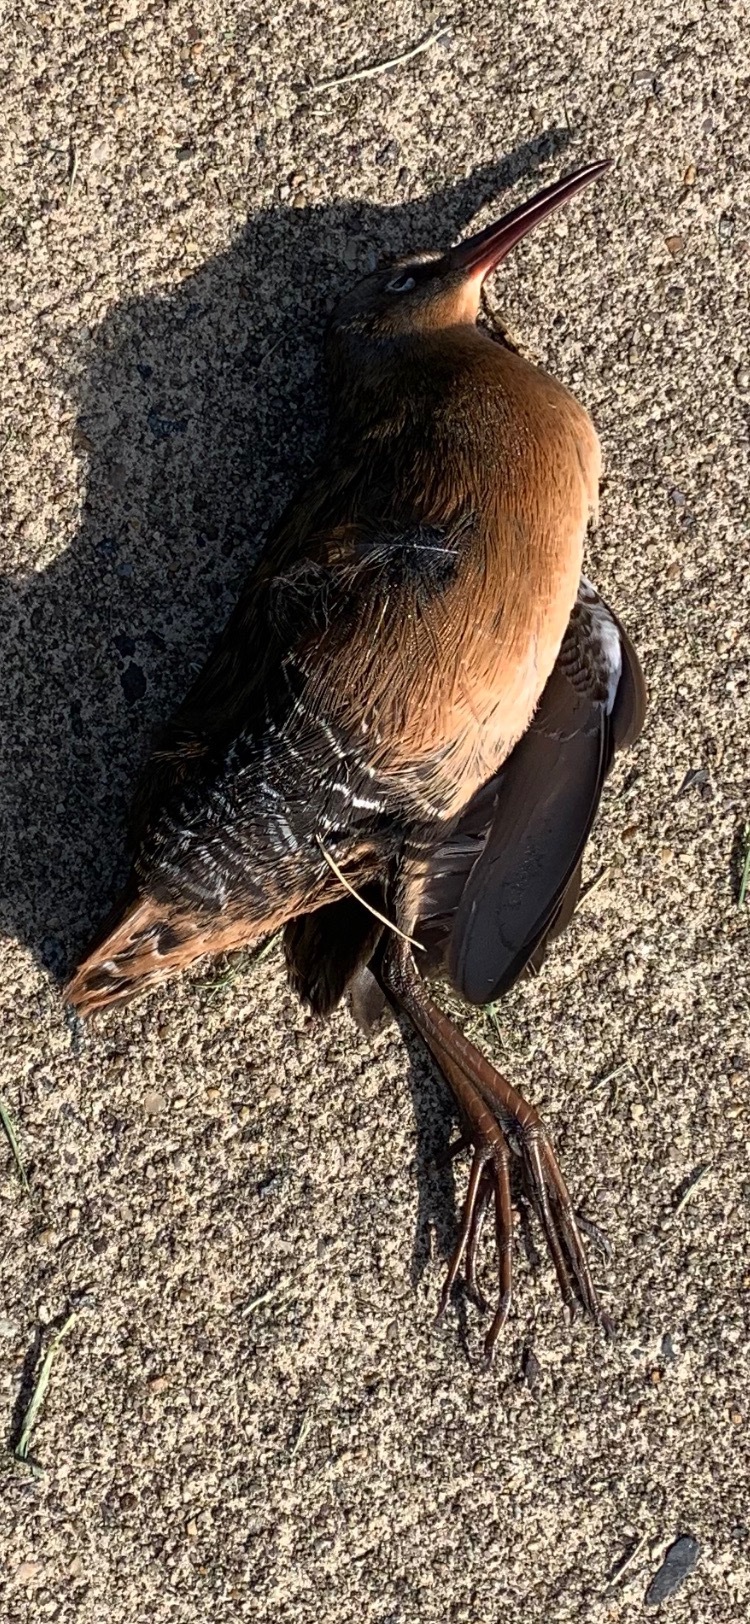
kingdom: Animalia
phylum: Chordata
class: Aves
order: Gruiformes
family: Rallidae
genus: Rallus
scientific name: Rallus limicola
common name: Virginia rail
